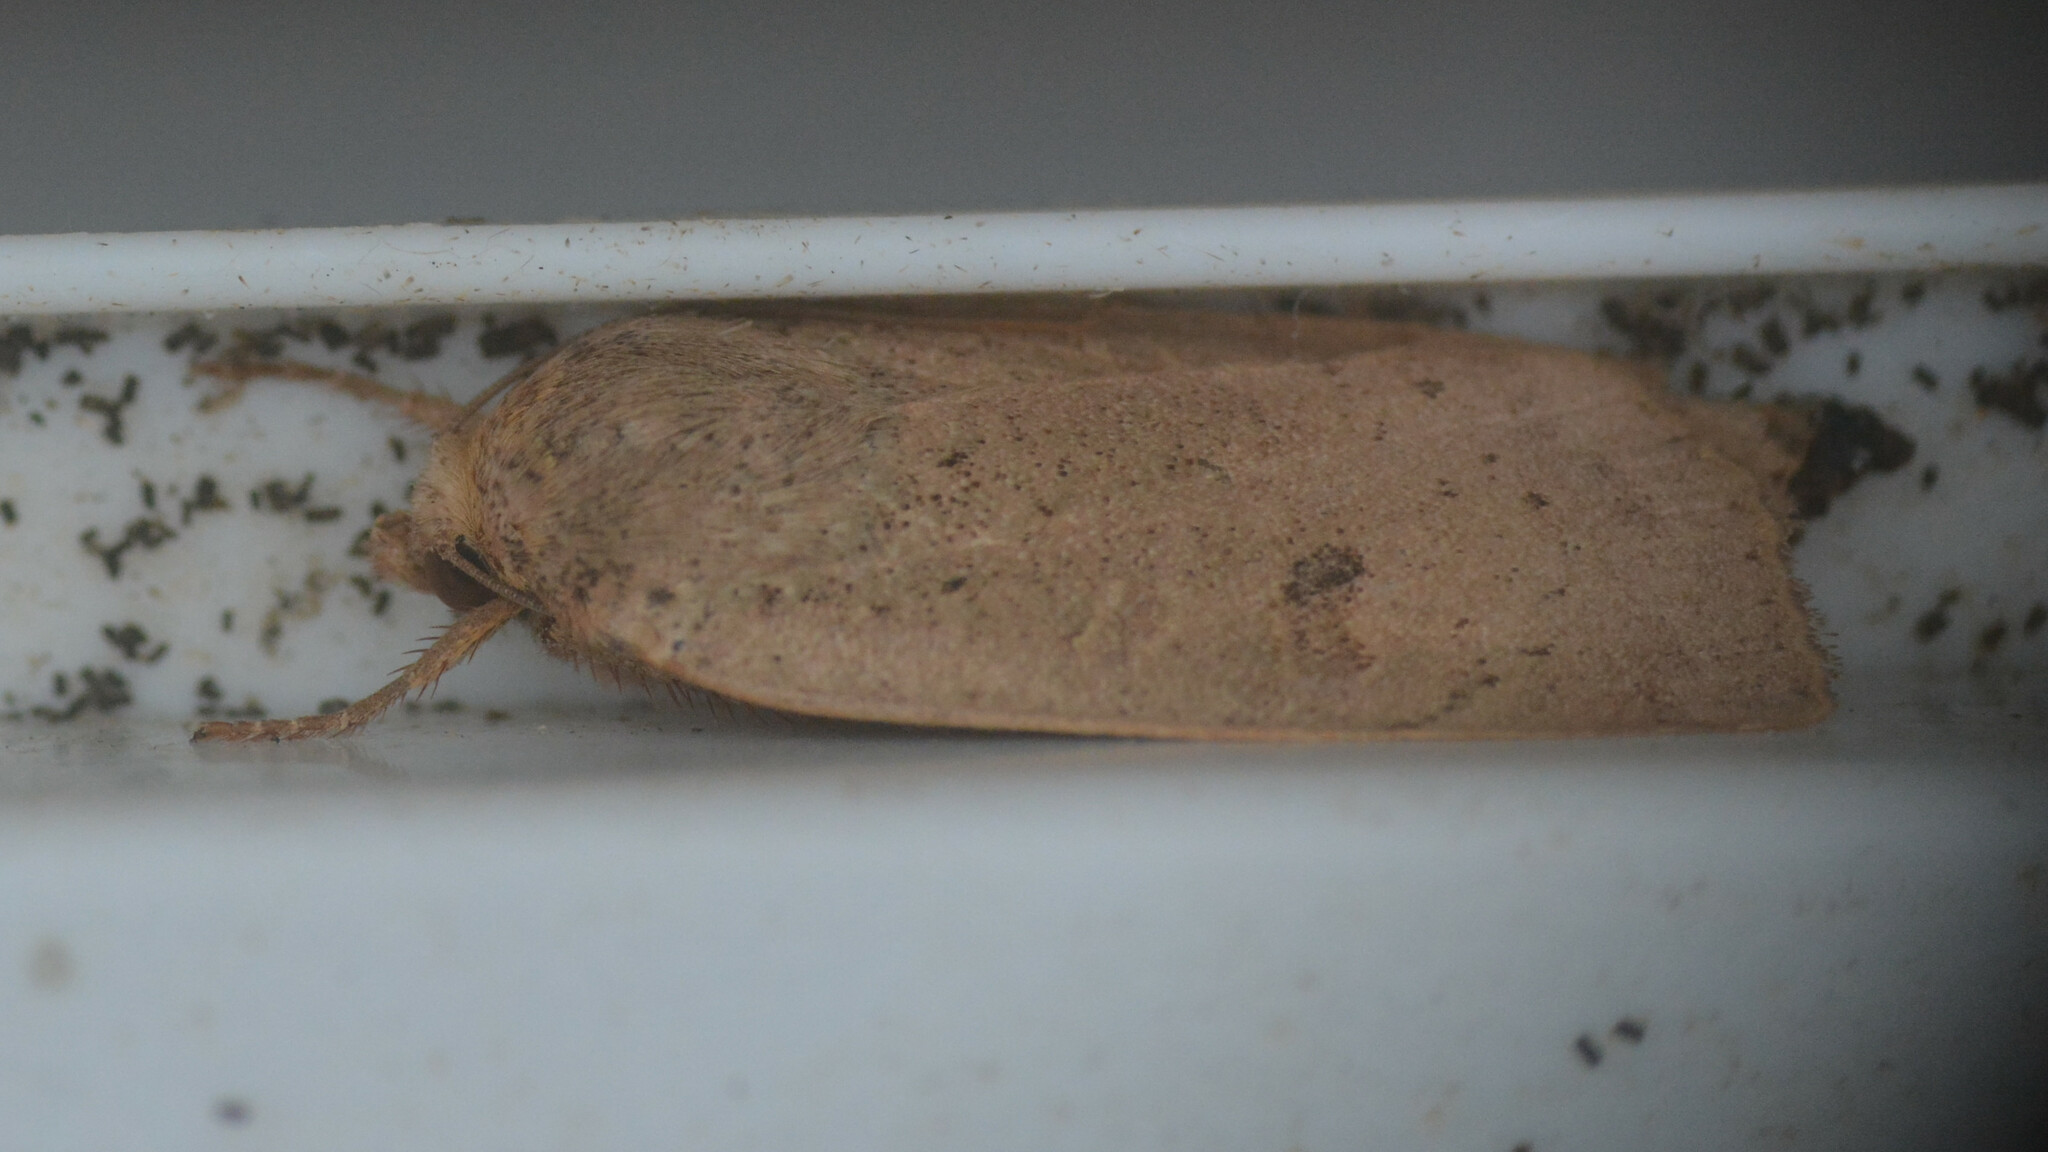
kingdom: Animalia
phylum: Arthropoda
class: Insecta
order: Lepidoptera
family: Noctuidae
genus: Noctua
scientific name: Noctua comes
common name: Lesser yellow underwing
